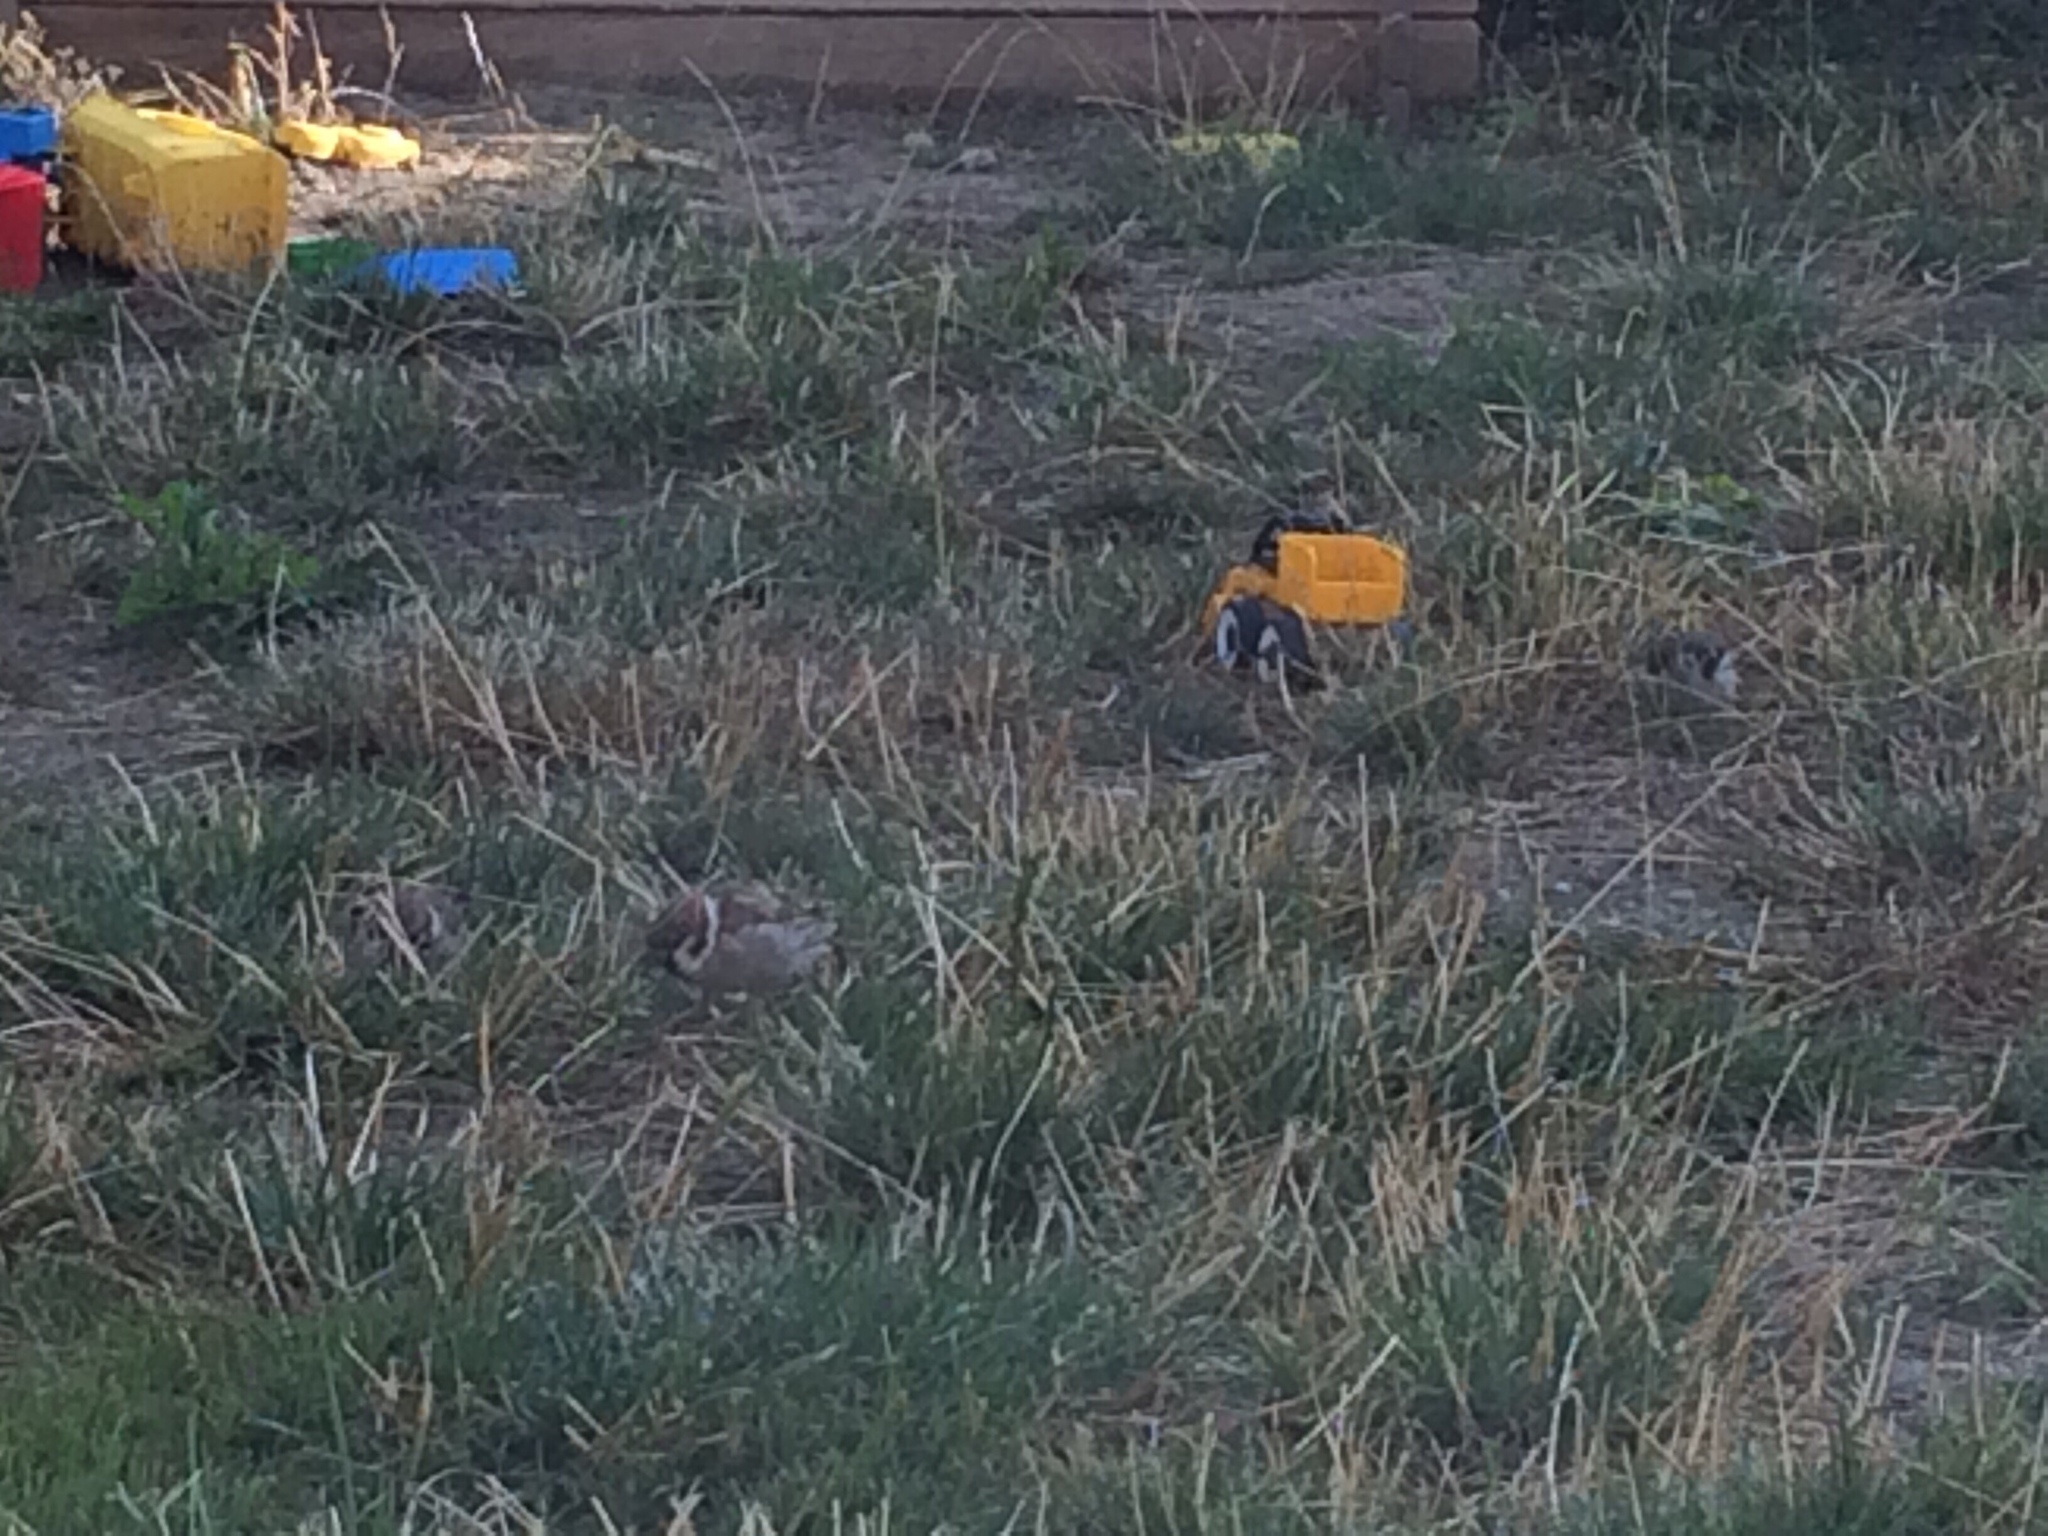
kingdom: Animalia
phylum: Chordata
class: Aves
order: Passeriformes
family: Passeridae
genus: Passer
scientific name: Passer montanus
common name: Eurasian tree sparrow
